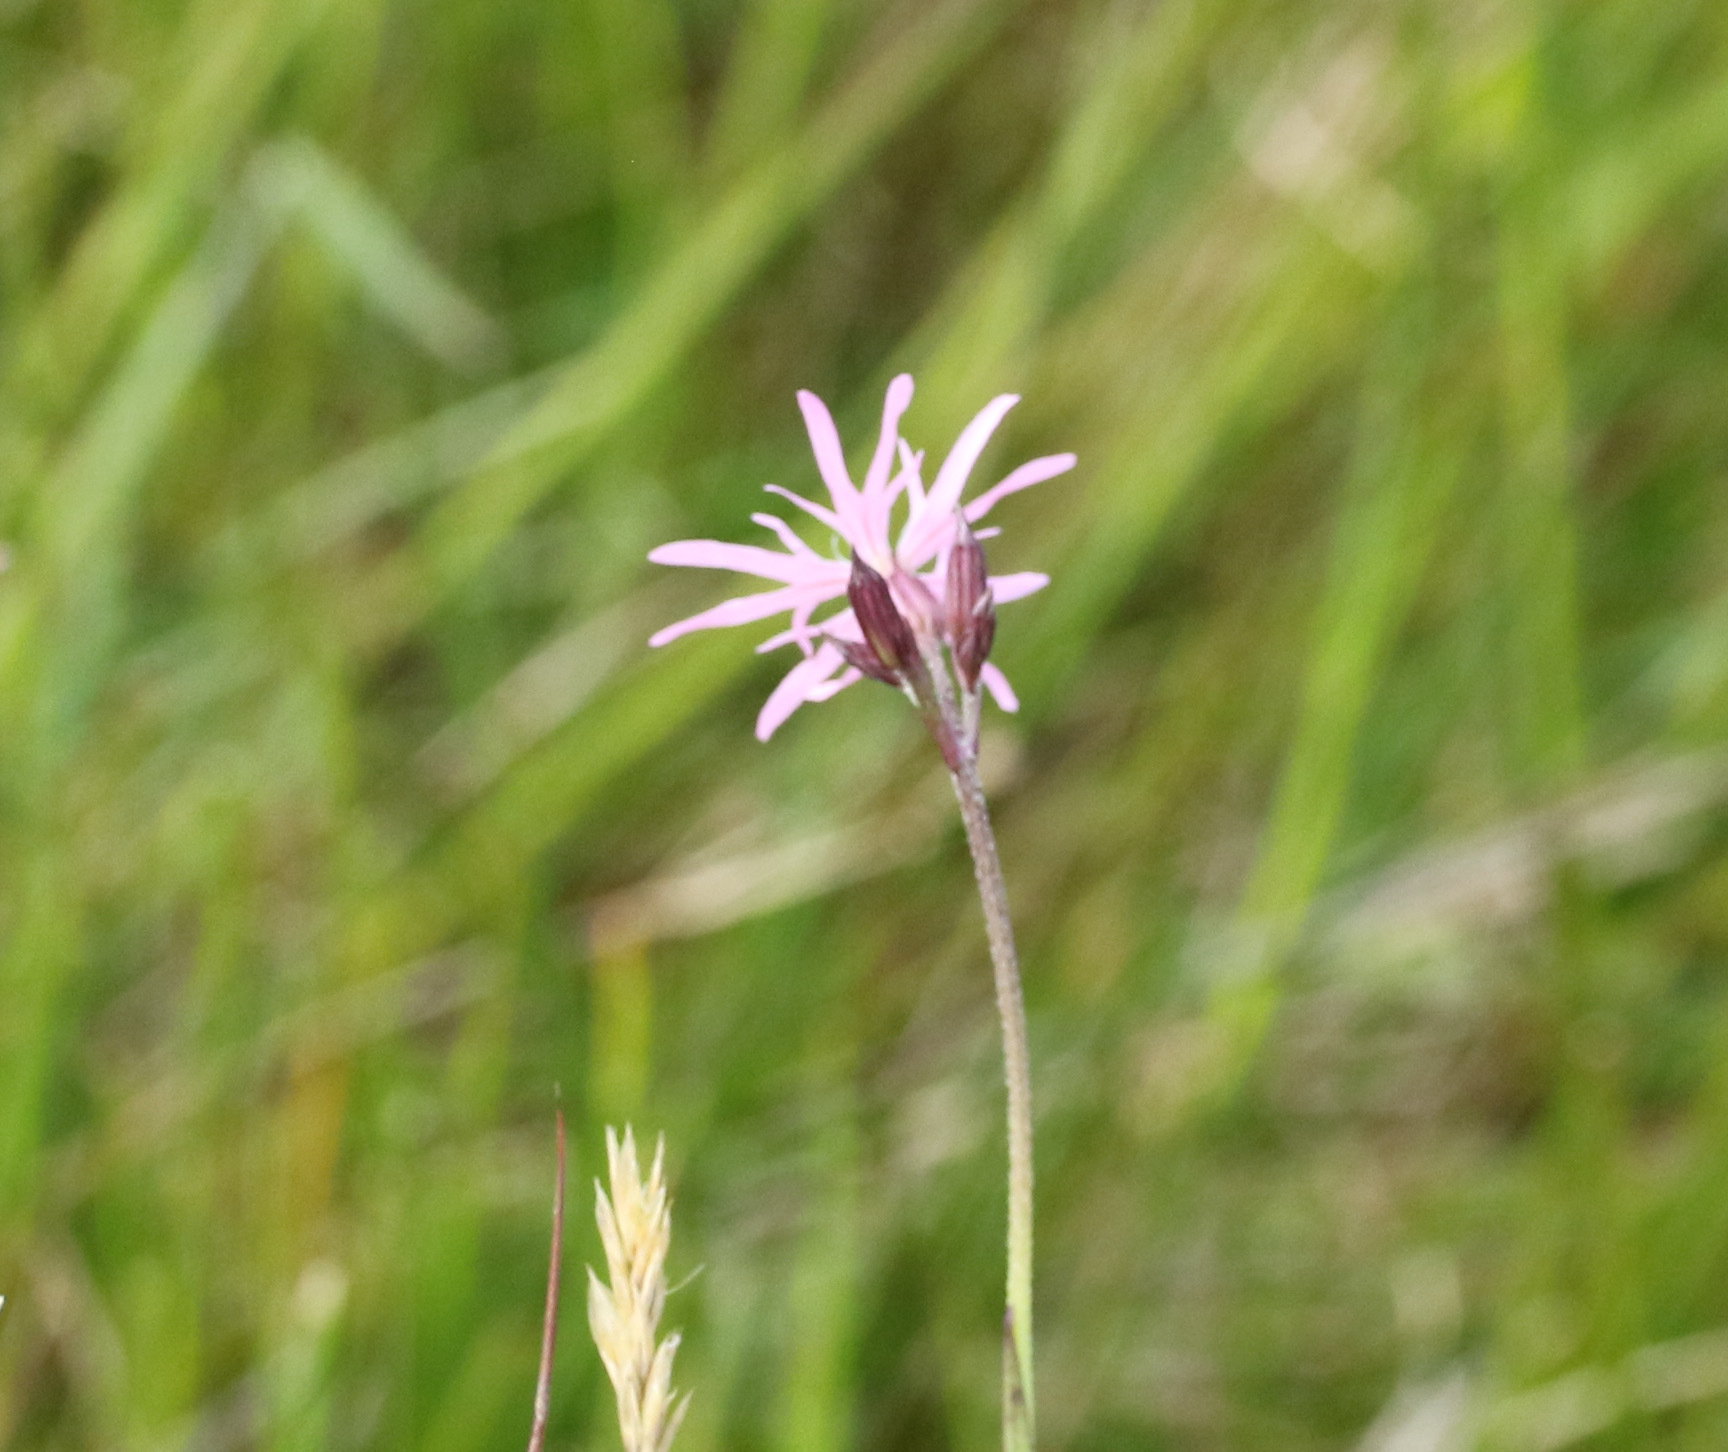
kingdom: Plantae
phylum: Tracheophyta
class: Magnoliopsida
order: Caryophyllales
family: Caryophyllaceae
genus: Silene
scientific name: Silene flos-cuculi
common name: Ragged-robin
